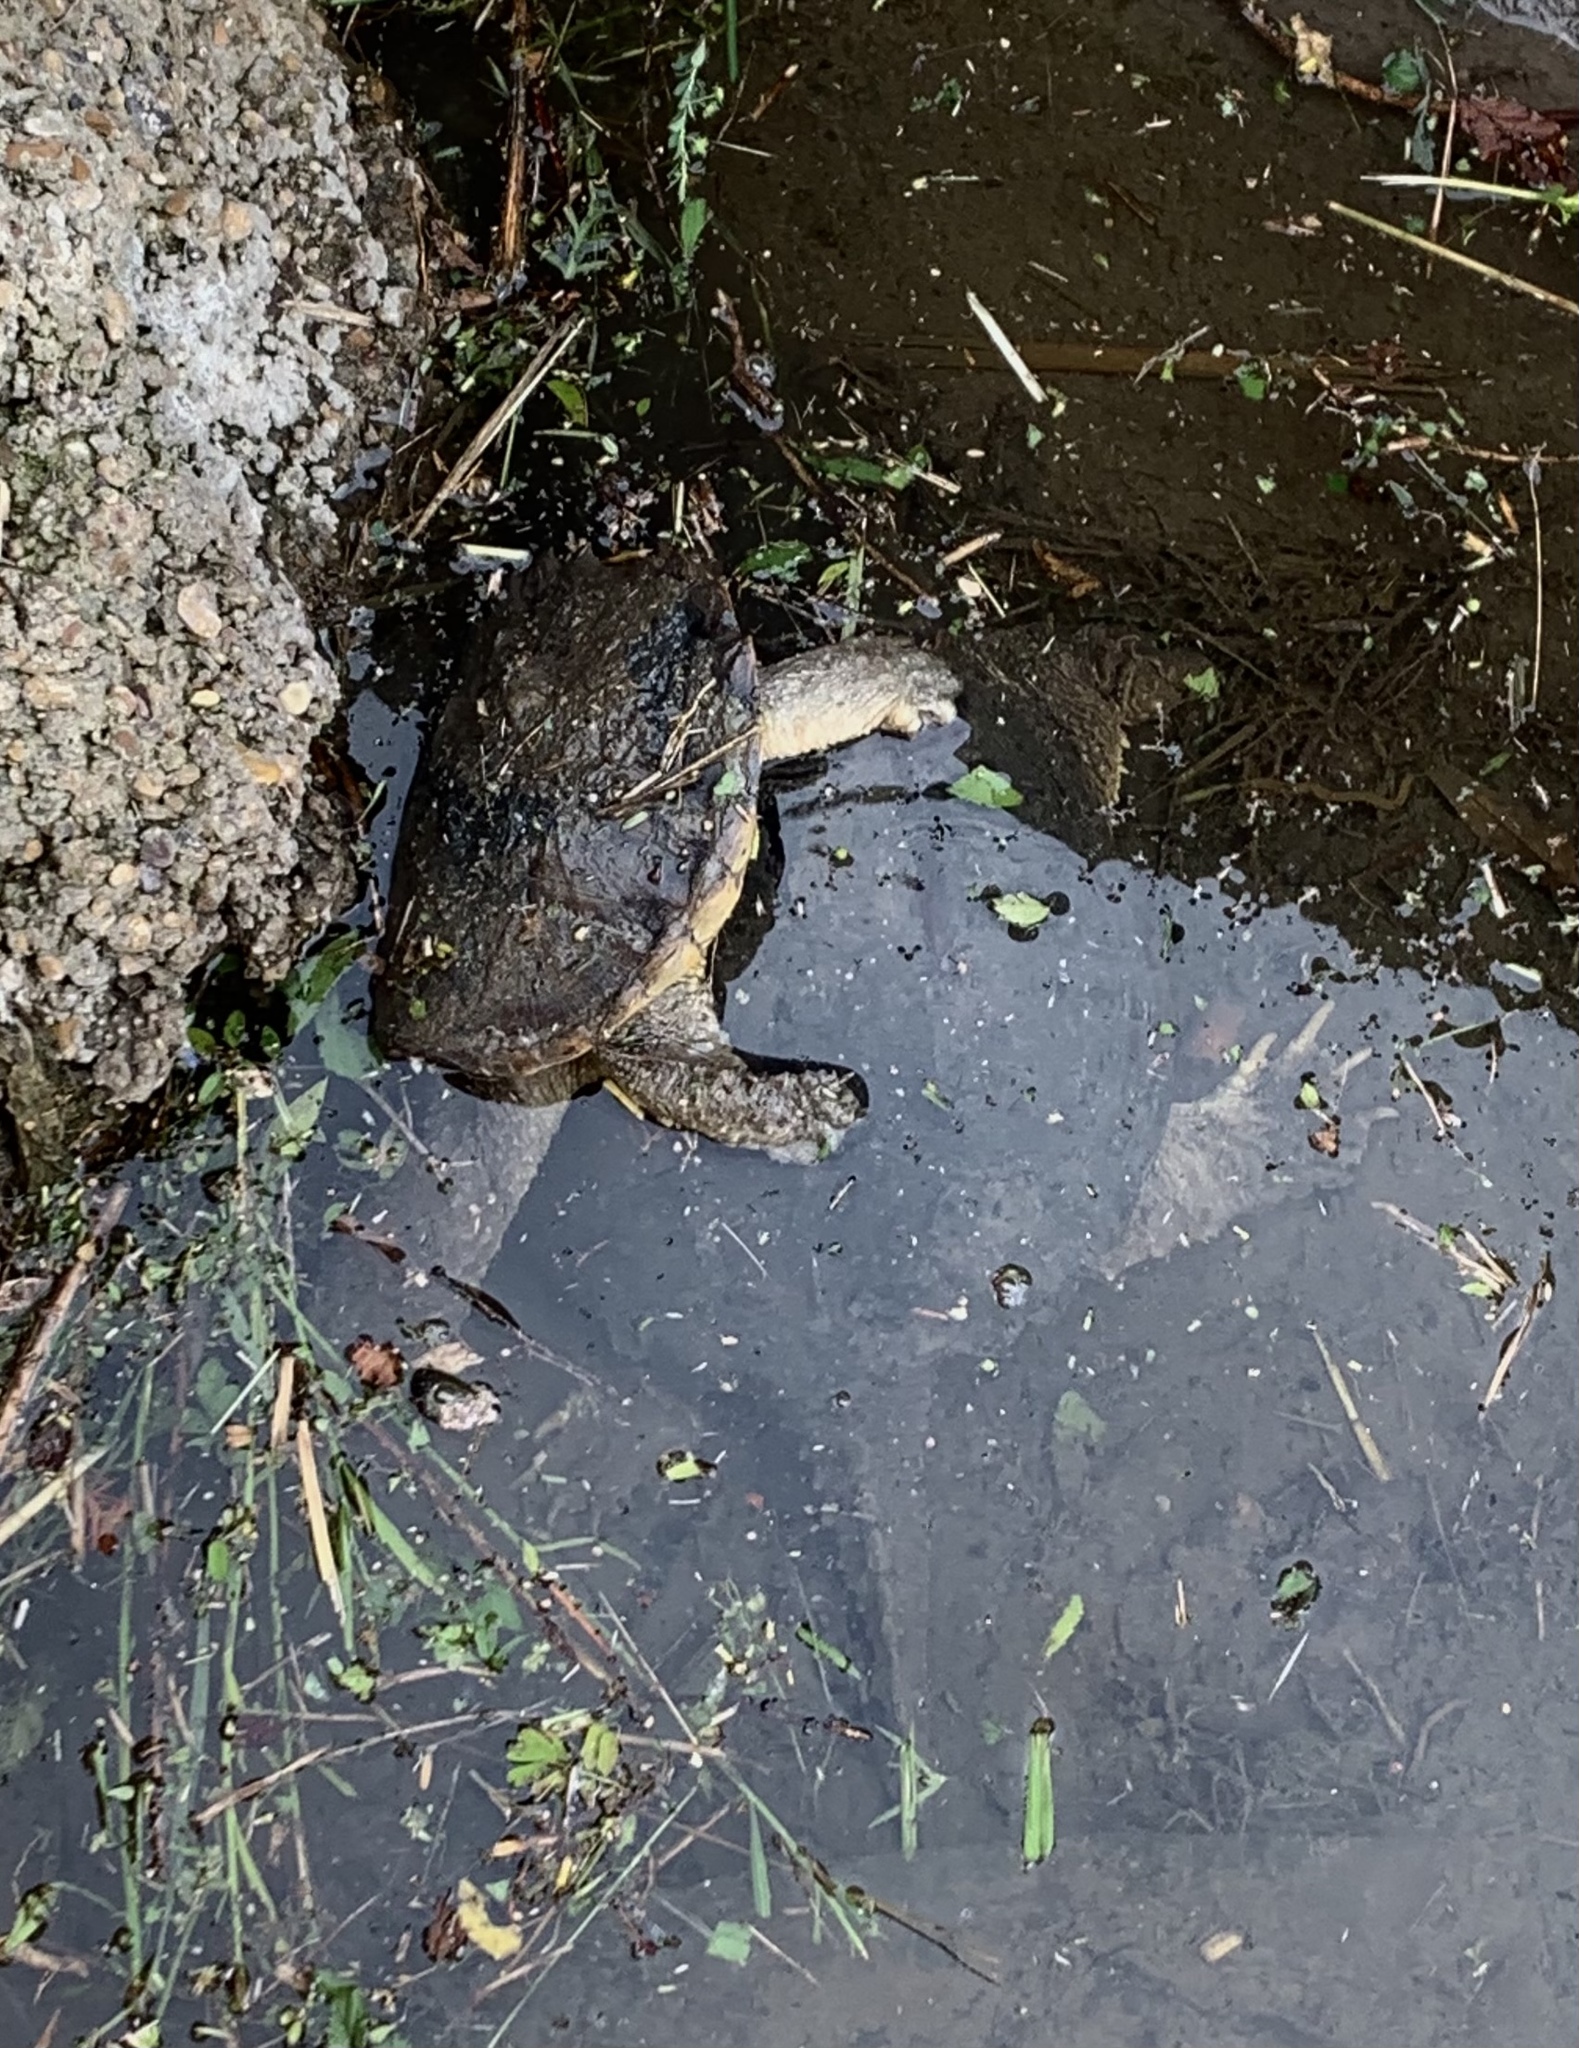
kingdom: Animalia
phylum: Chordata
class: Testudines
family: Chelydridae
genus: Chelydra
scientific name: Chelydra serpentina
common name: Common snapping turtle
